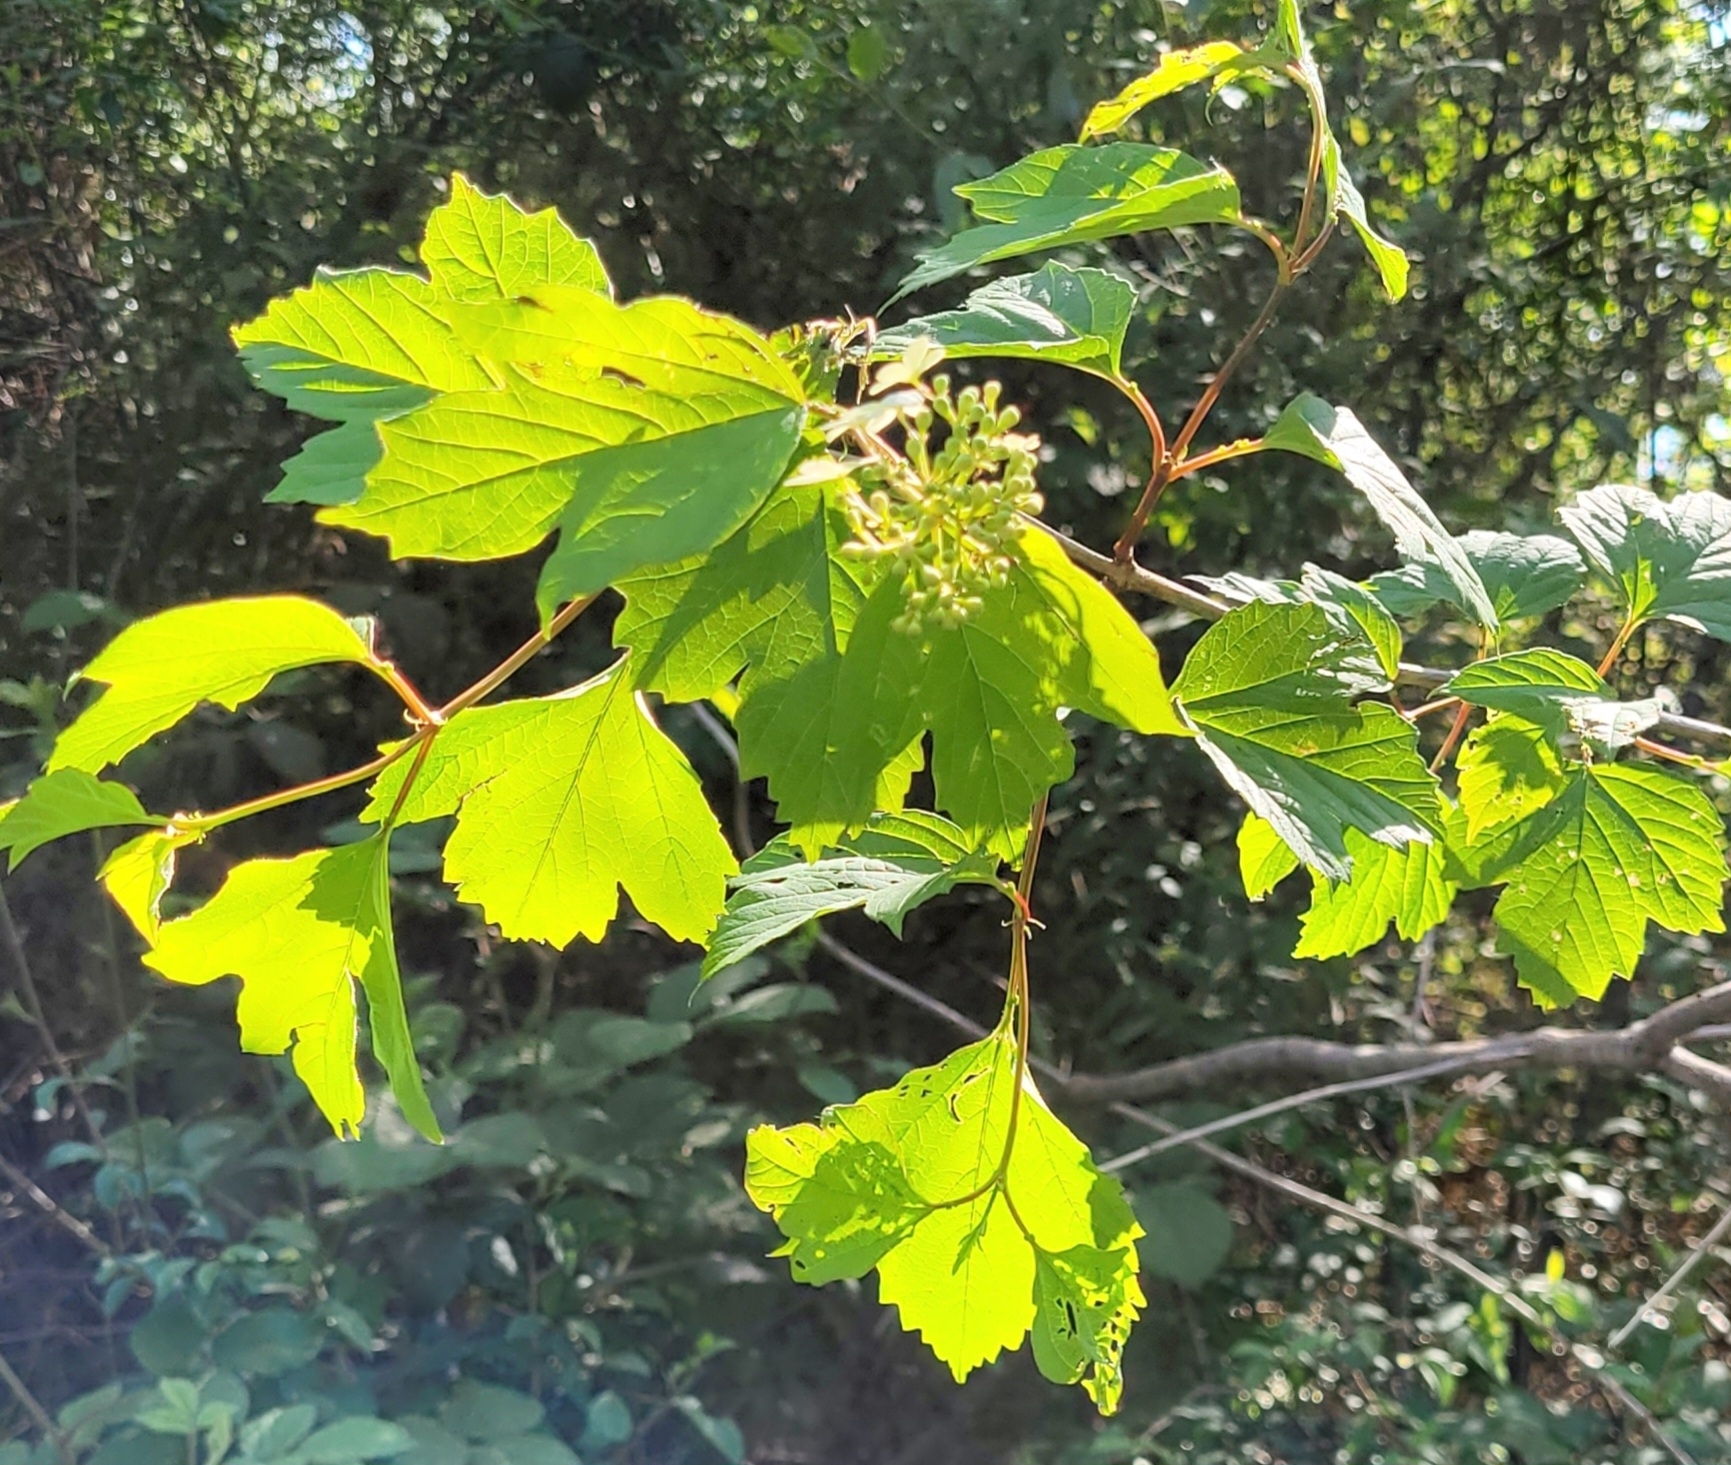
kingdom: Plantae
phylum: Tracheophyta
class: Magnoliopsida
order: Dipsacales
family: Viburnaceae
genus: Viburnum
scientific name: Viburnum opulus
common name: Guelder-rose
